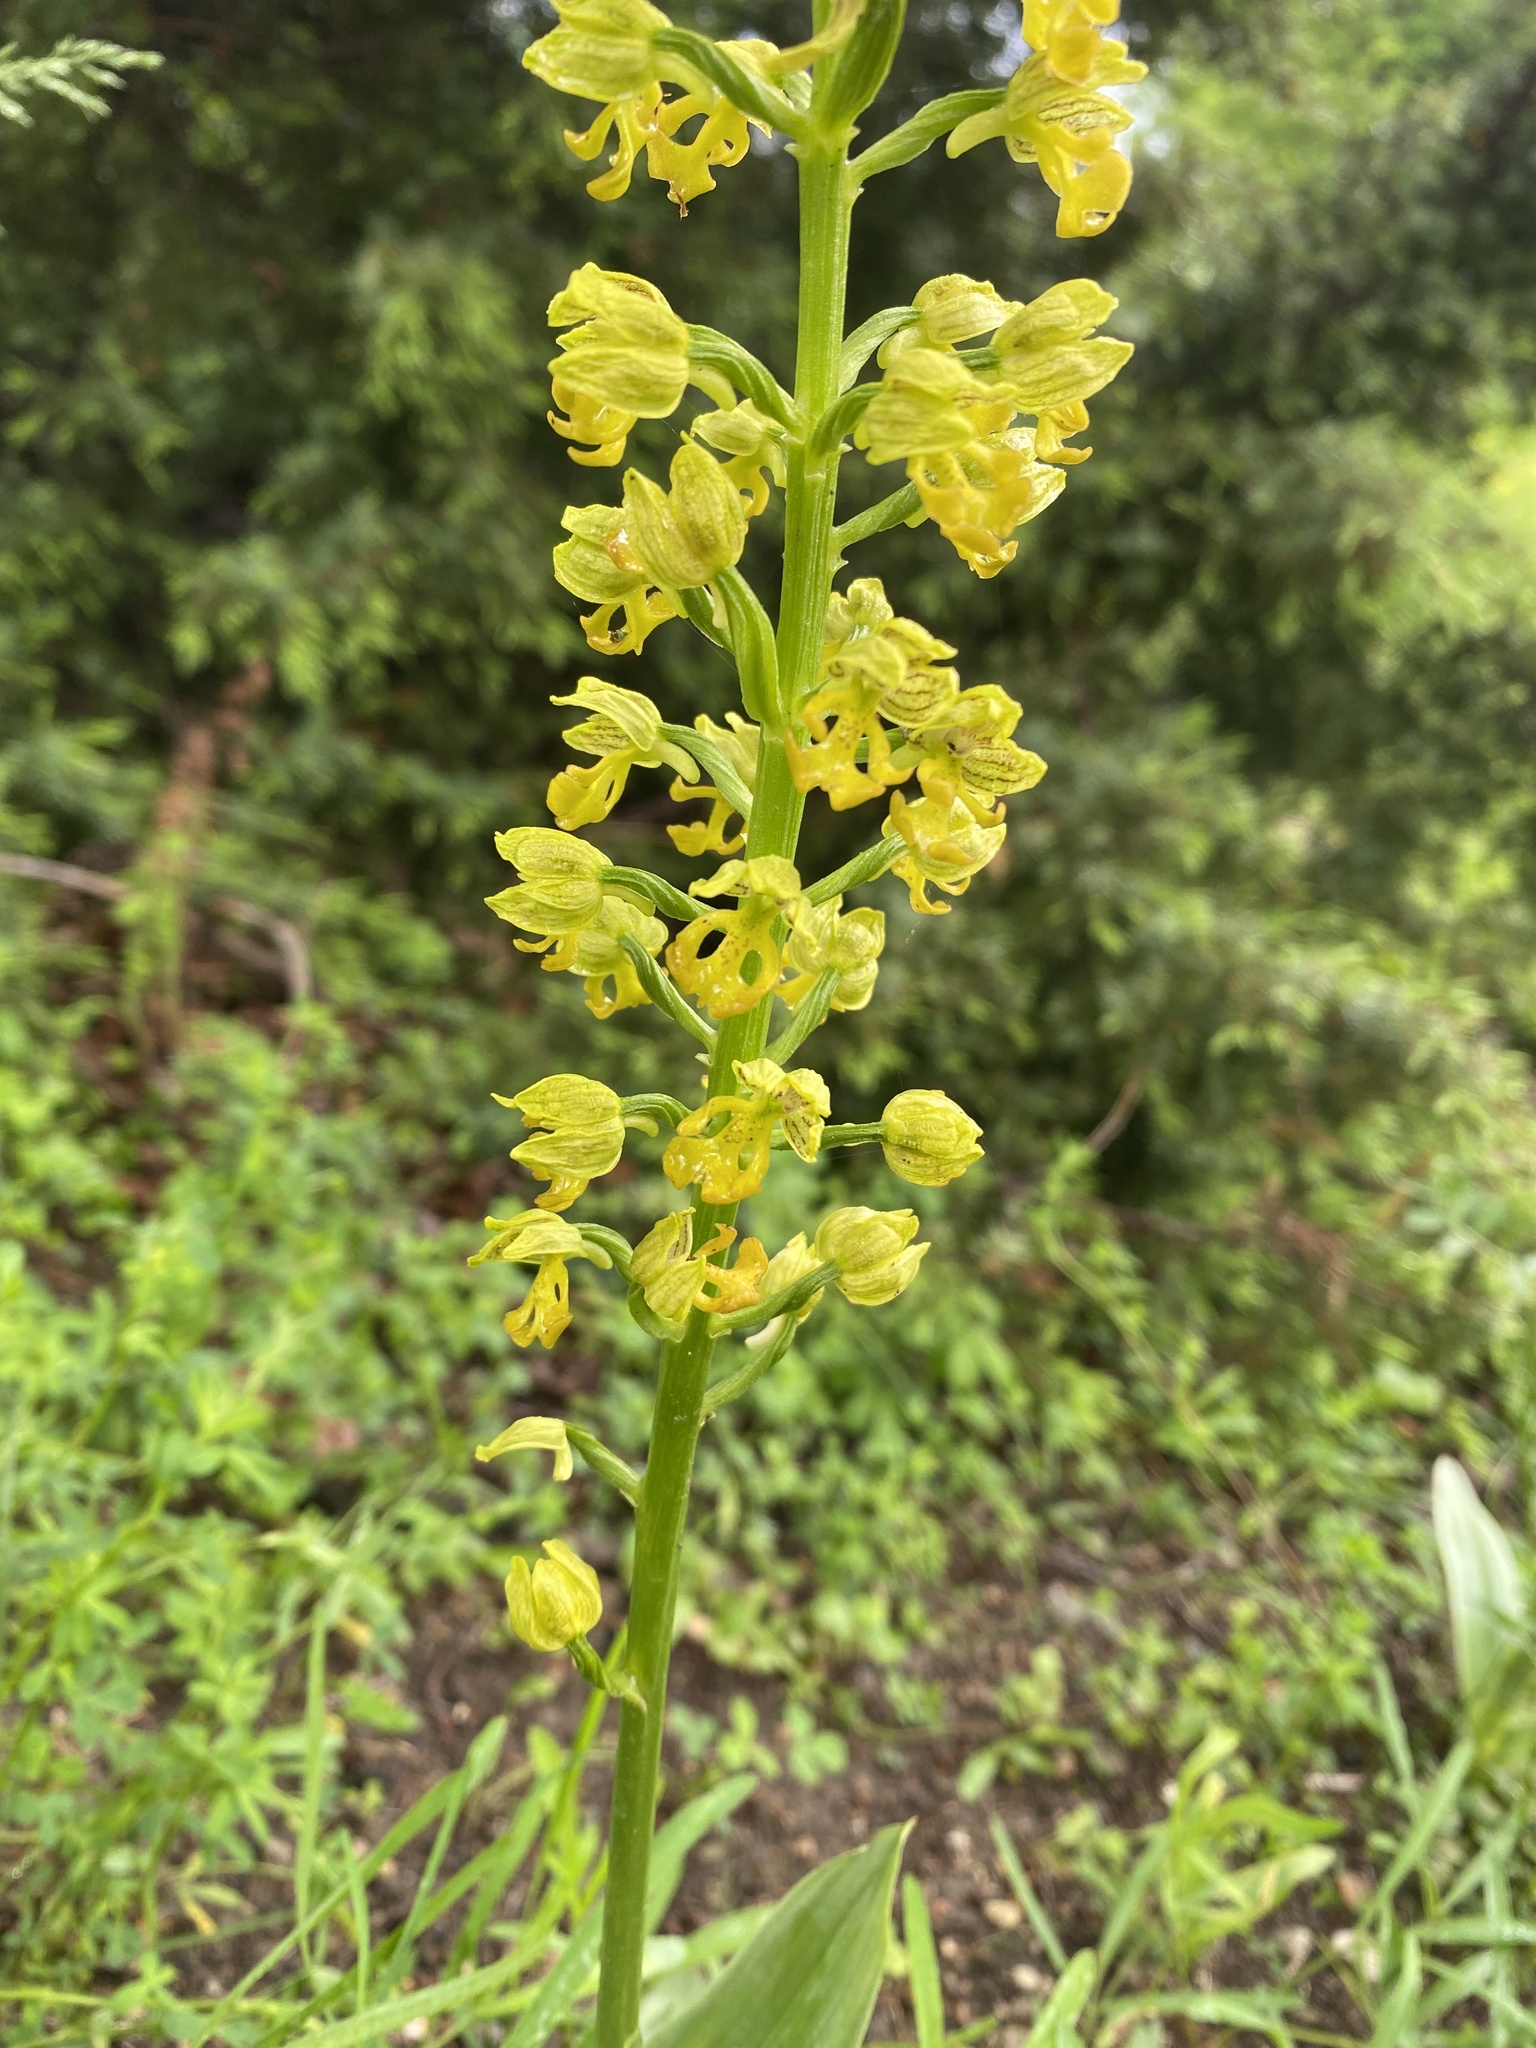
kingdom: Plantae
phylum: Tracheophyta
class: Liliopsida
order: Asparagales
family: Orchidaceae
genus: Orchis
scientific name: Orchis punctulata
